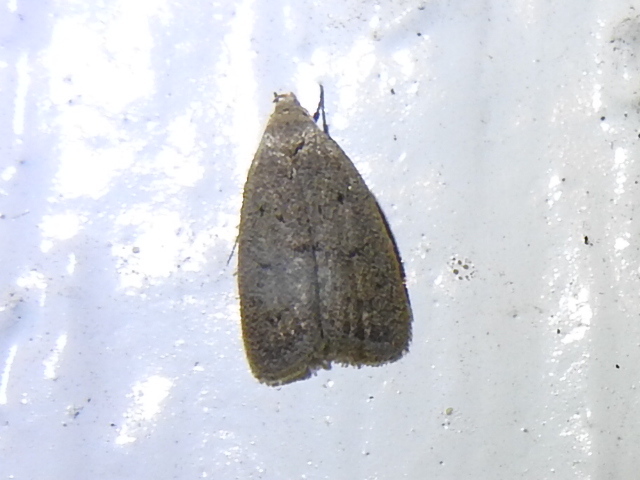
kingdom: Animalia
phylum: Arthropoda
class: Insecta
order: Lepidoptera
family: Oecophoridae
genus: Inga
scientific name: Inga obscuromaculella
